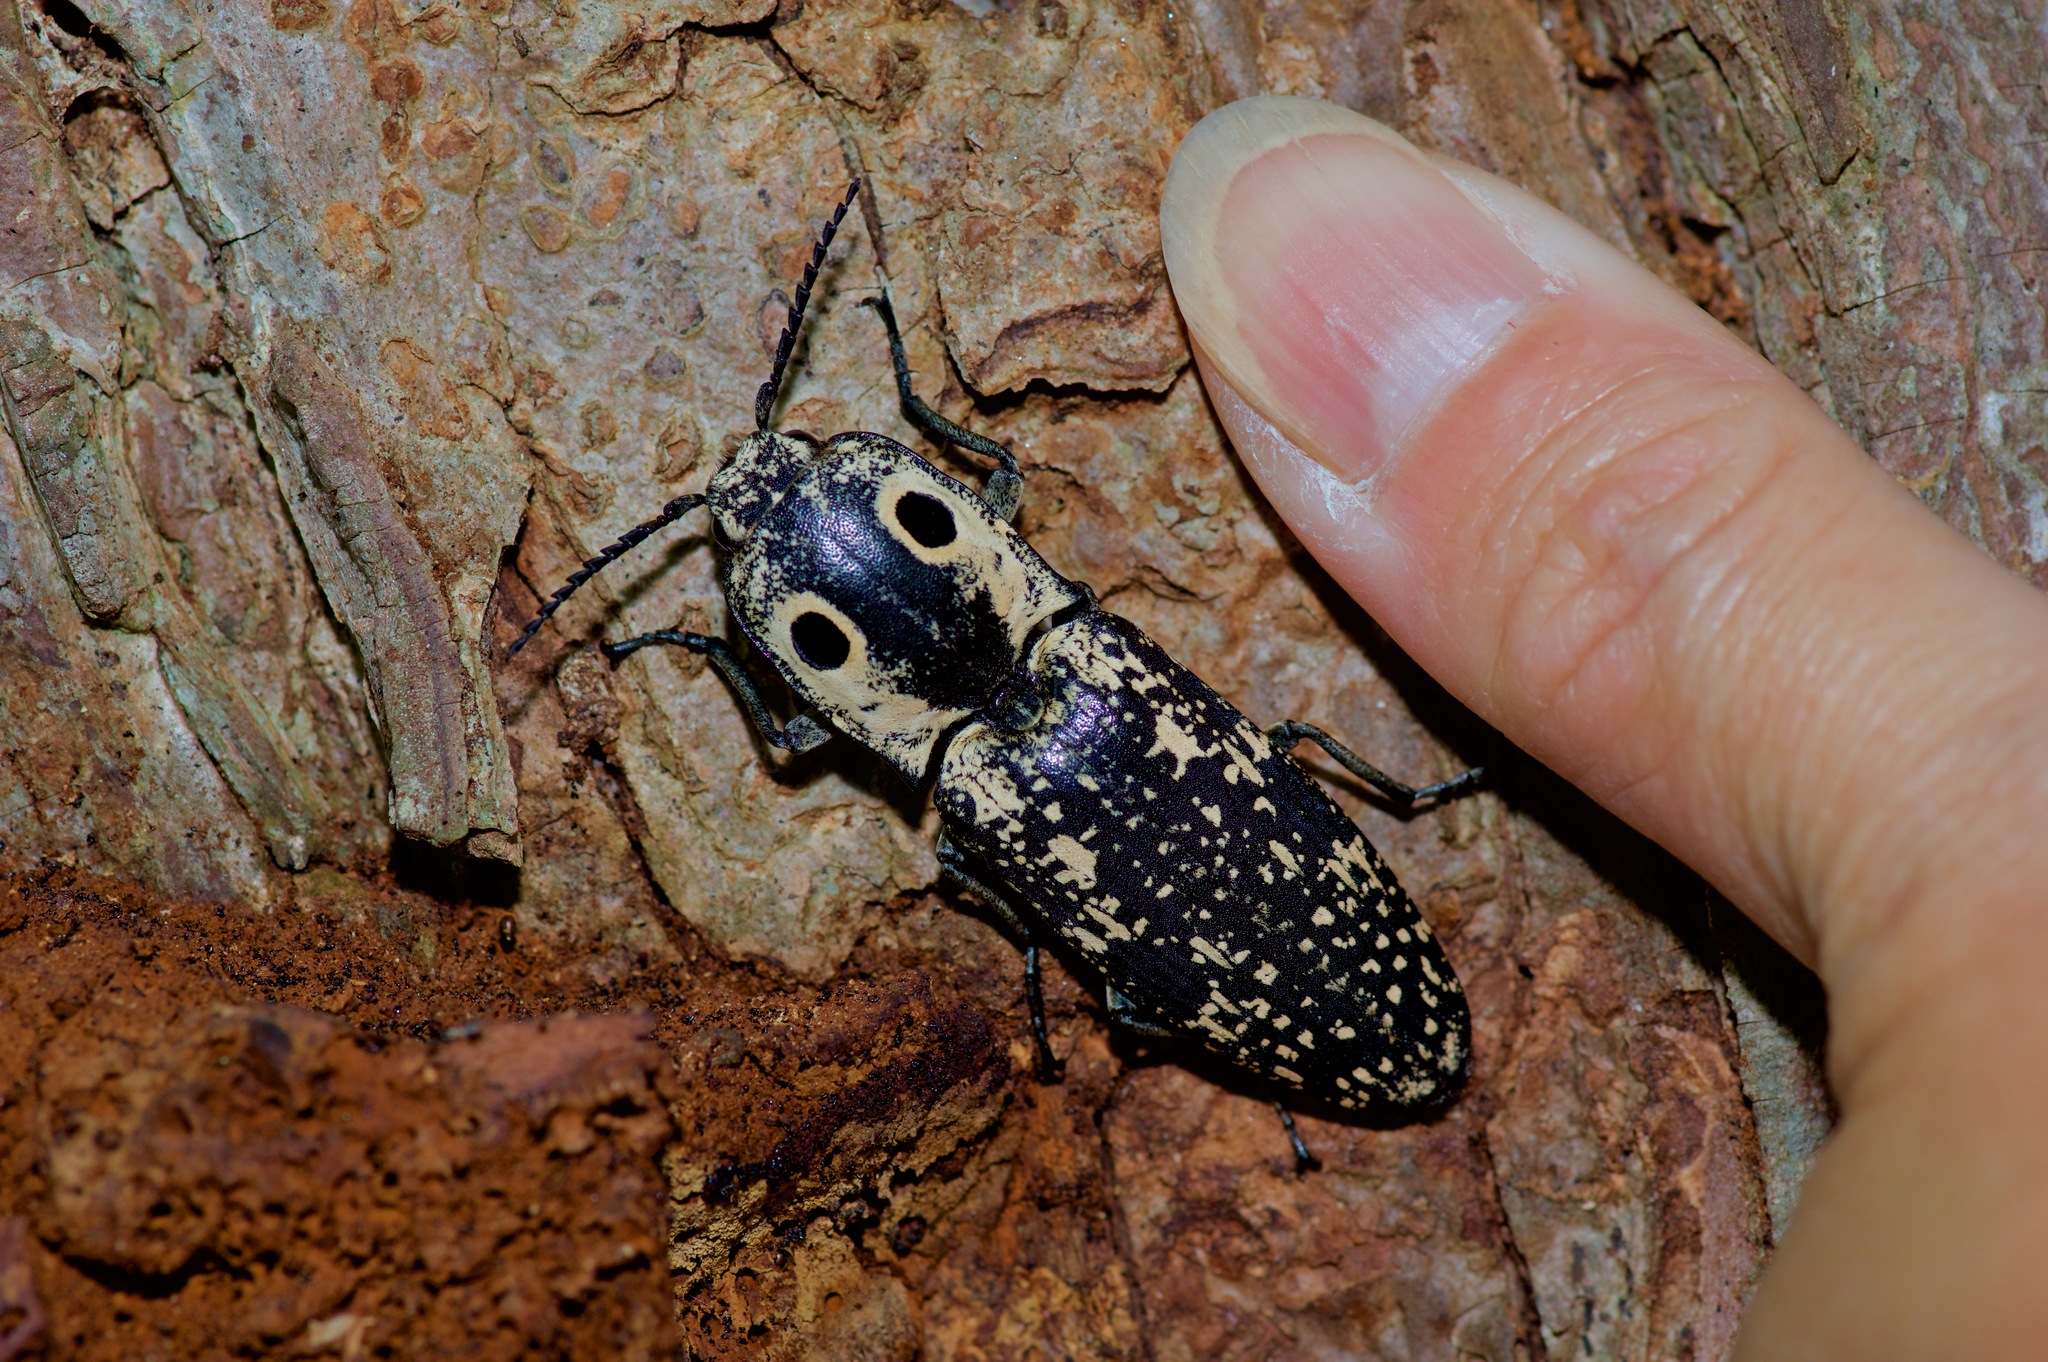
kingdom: Animalia
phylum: Arthropoda
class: Insecta
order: Coleoptera
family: Elateridae
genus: Alaus
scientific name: Alaus
